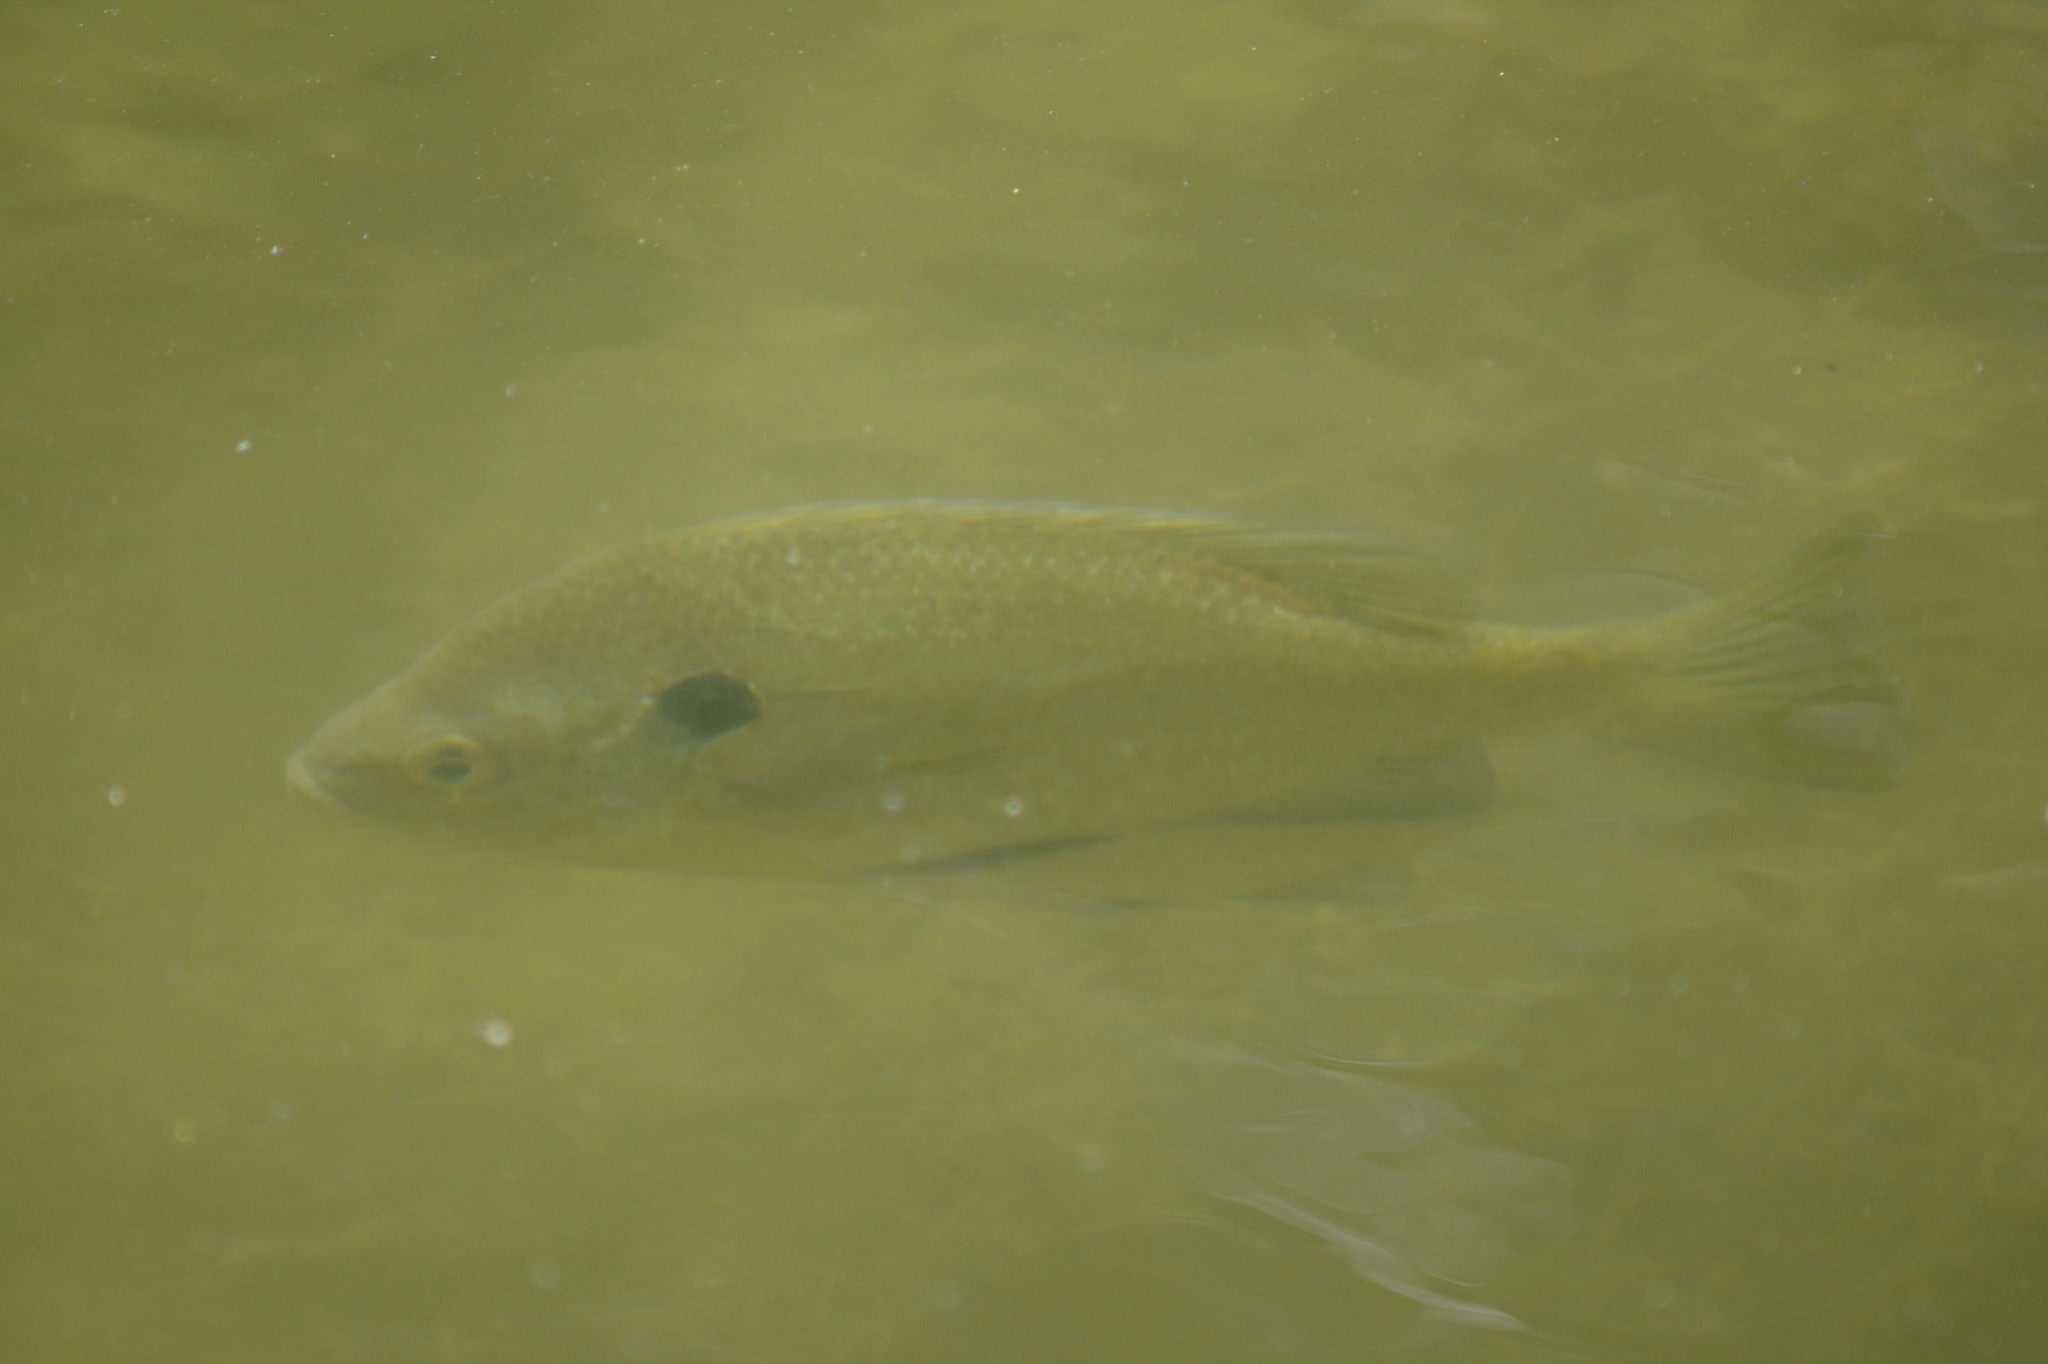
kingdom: Animalia
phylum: Chordata
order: Perciformes
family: Centrarchidae
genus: Lepomis
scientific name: Lepomis macrochirus
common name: Bluegill
